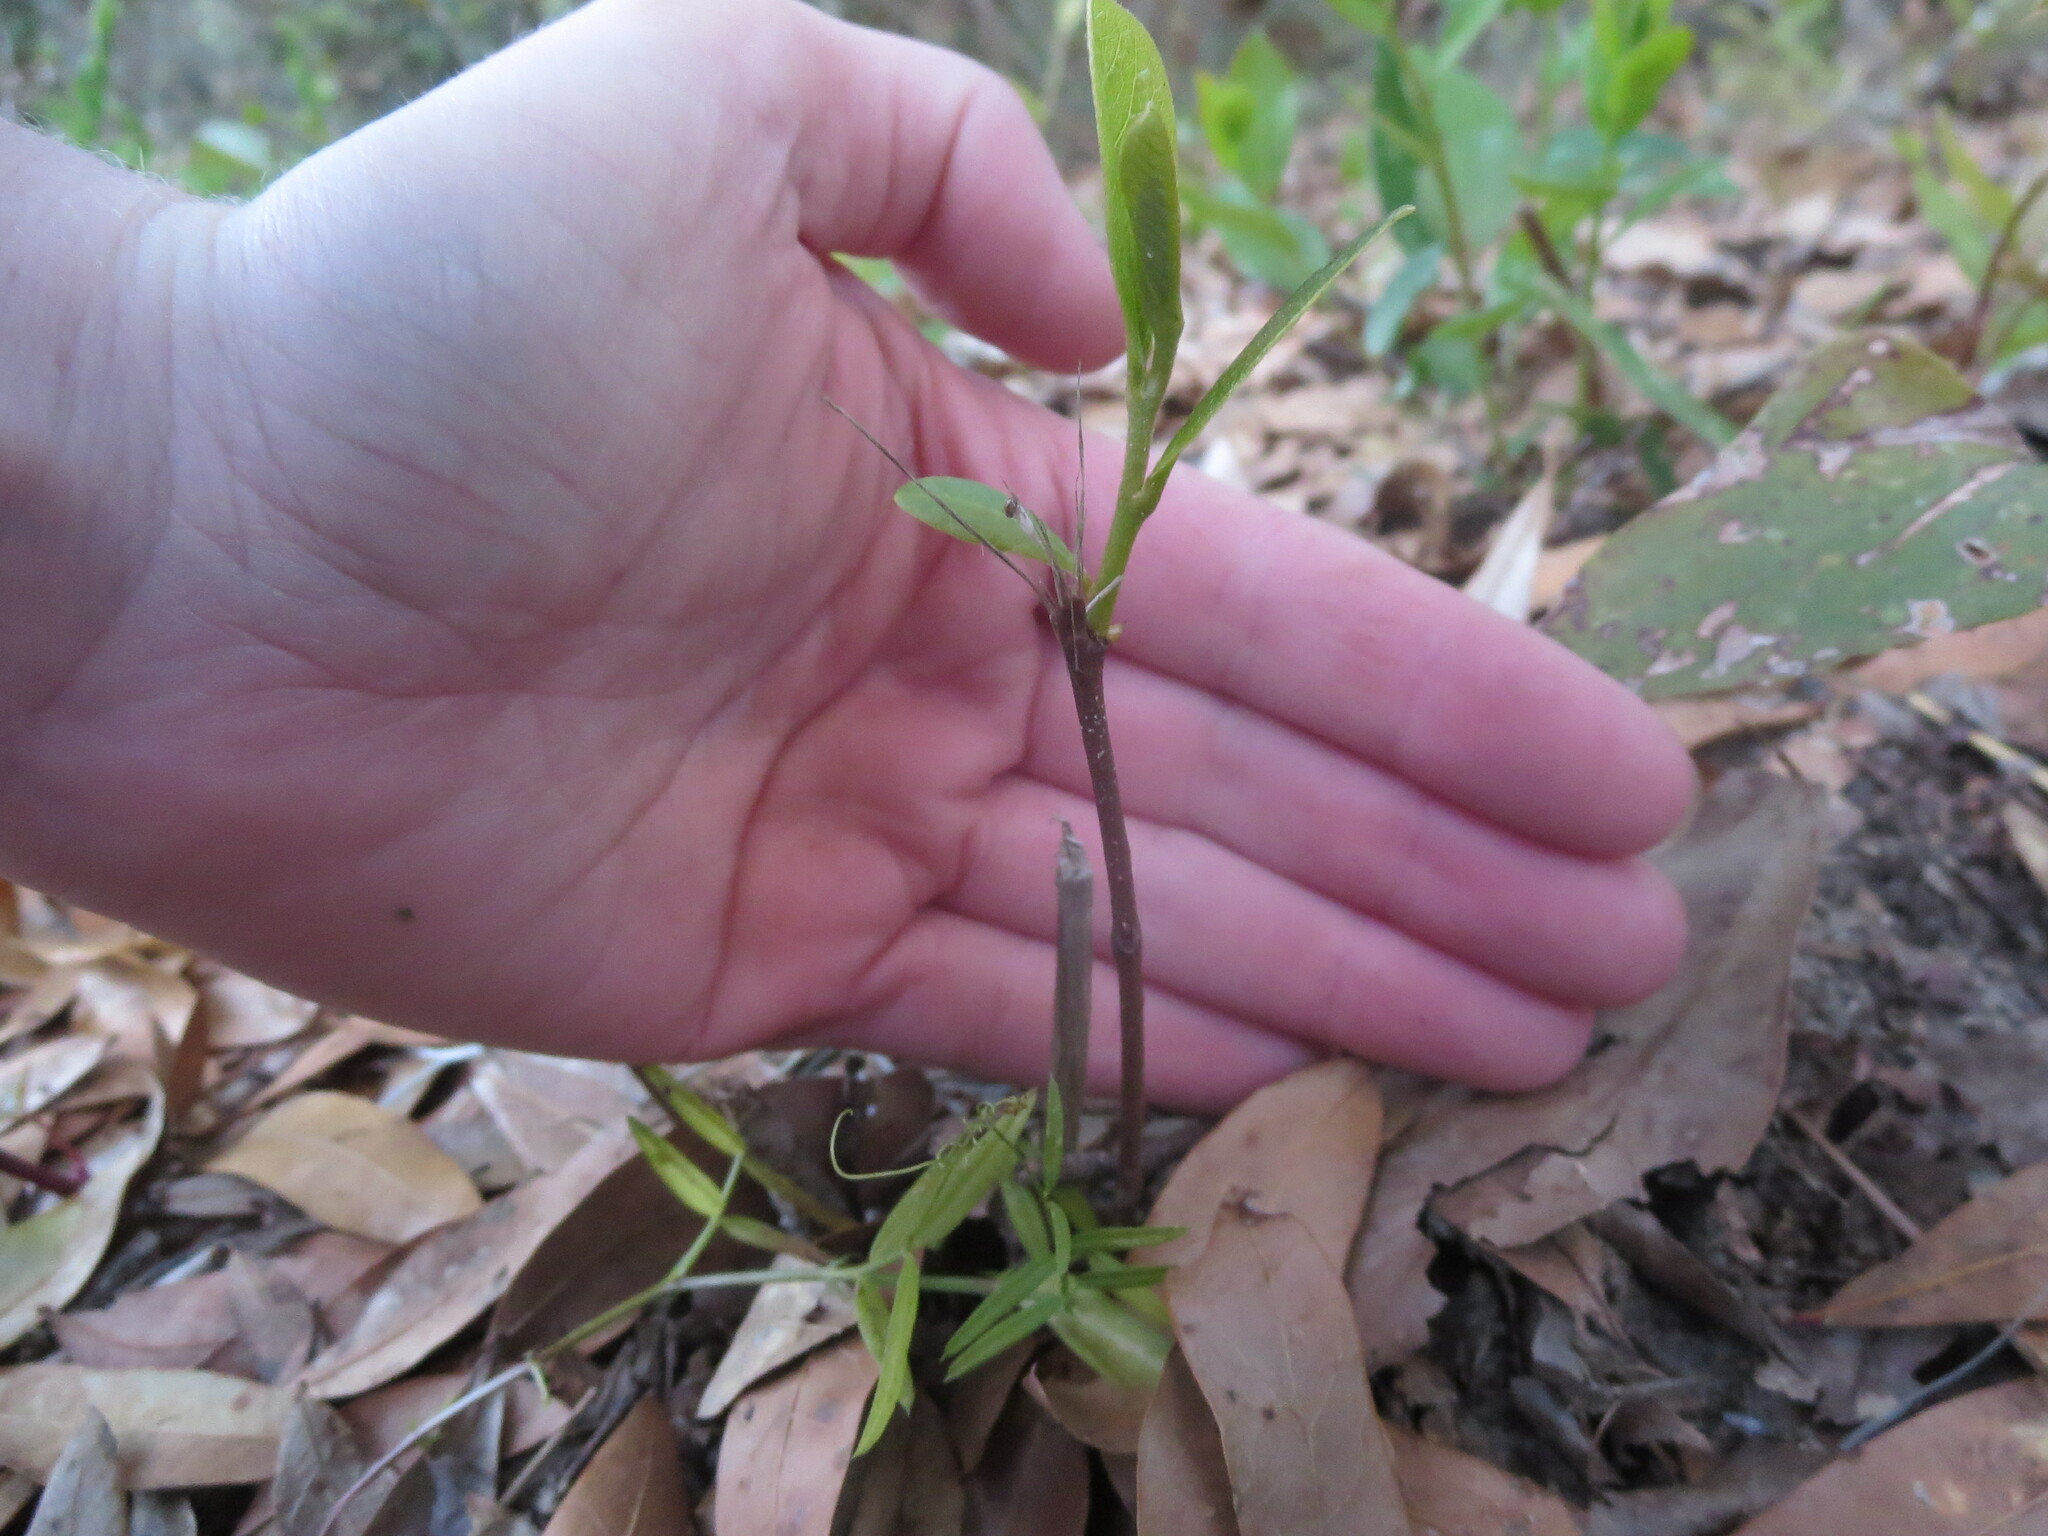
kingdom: Plantae
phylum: Tracheophyta
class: Magnoliopsida
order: Magnoliales
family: Annonaceae
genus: Asimina
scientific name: Asimina parviflora
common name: Dwarf pawpaw
